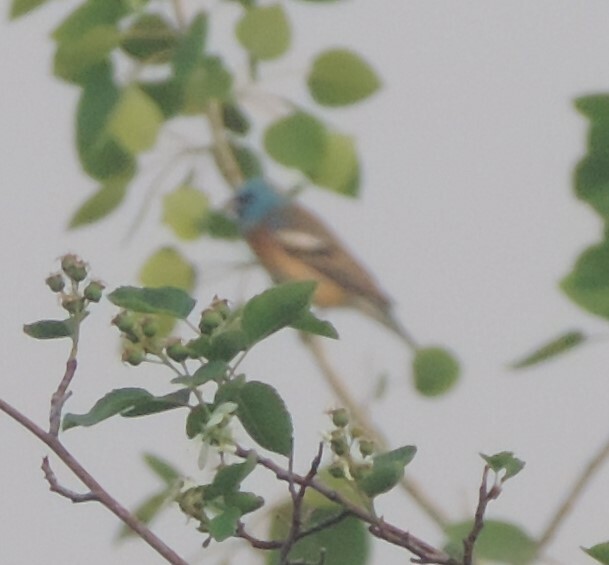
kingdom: Animalia
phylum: Chordata
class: Aves
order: Passeriformes
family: Cardinalidae
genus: Passerina
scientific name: Passerina amoena
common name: Lazuli bunting
